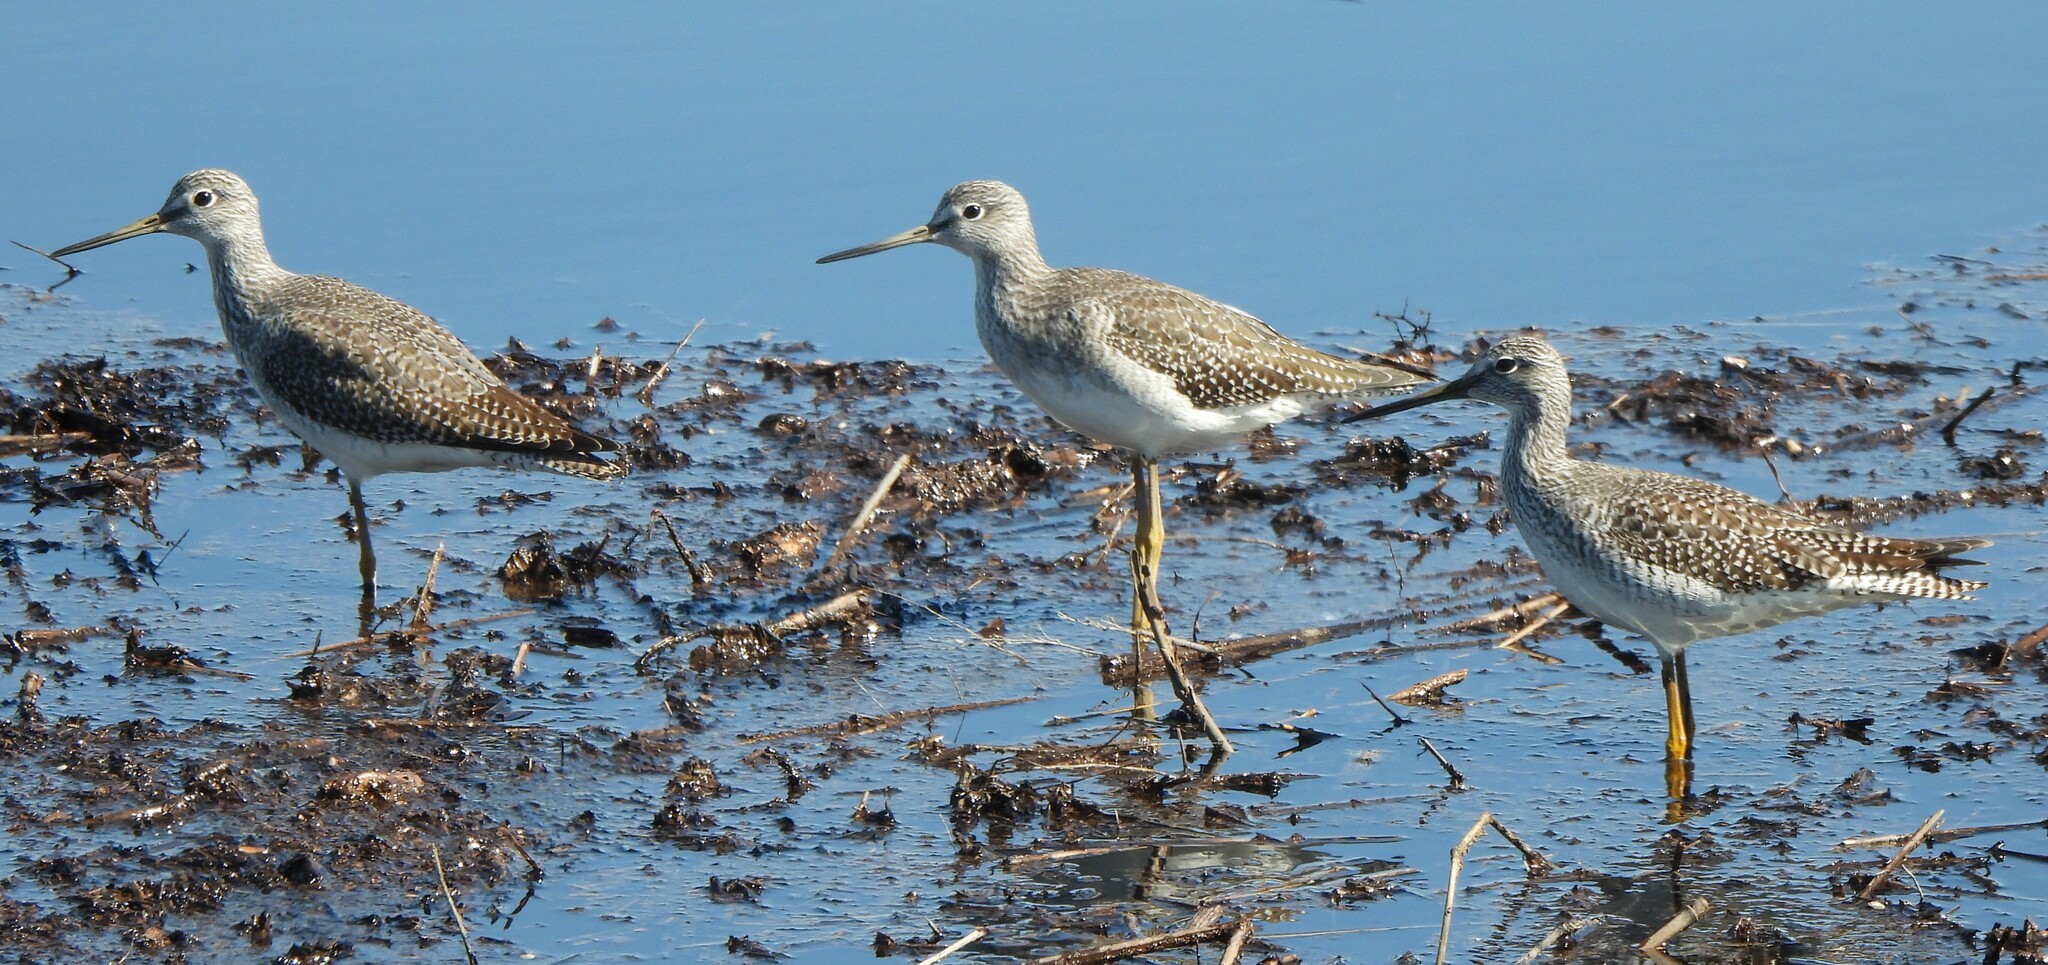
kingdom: Animalia
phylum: Chordata
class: Aves
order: Charadriiformes
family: Scolopacidae
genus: Tringa
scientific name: Tringa melanoleuca
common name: Greater yellowlegs
